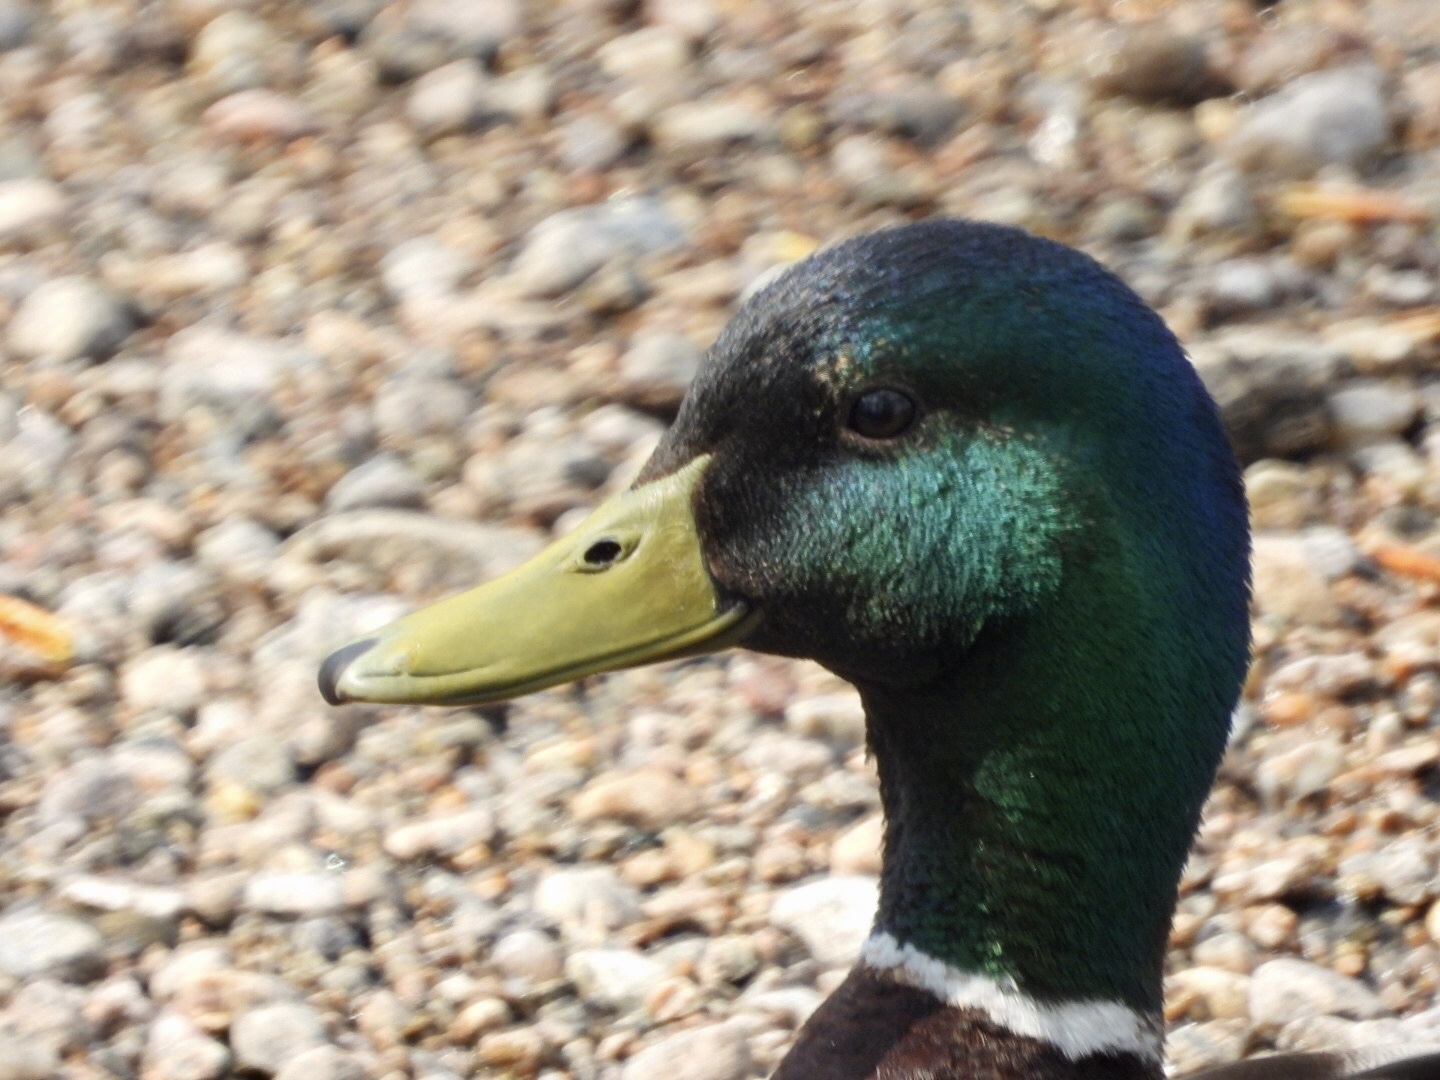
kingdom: Animalia
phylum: Chordata
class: Aves
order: Anseriformes
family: Anatidae
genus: Anas
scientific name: Anas platyrhynchos
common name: Mallard
